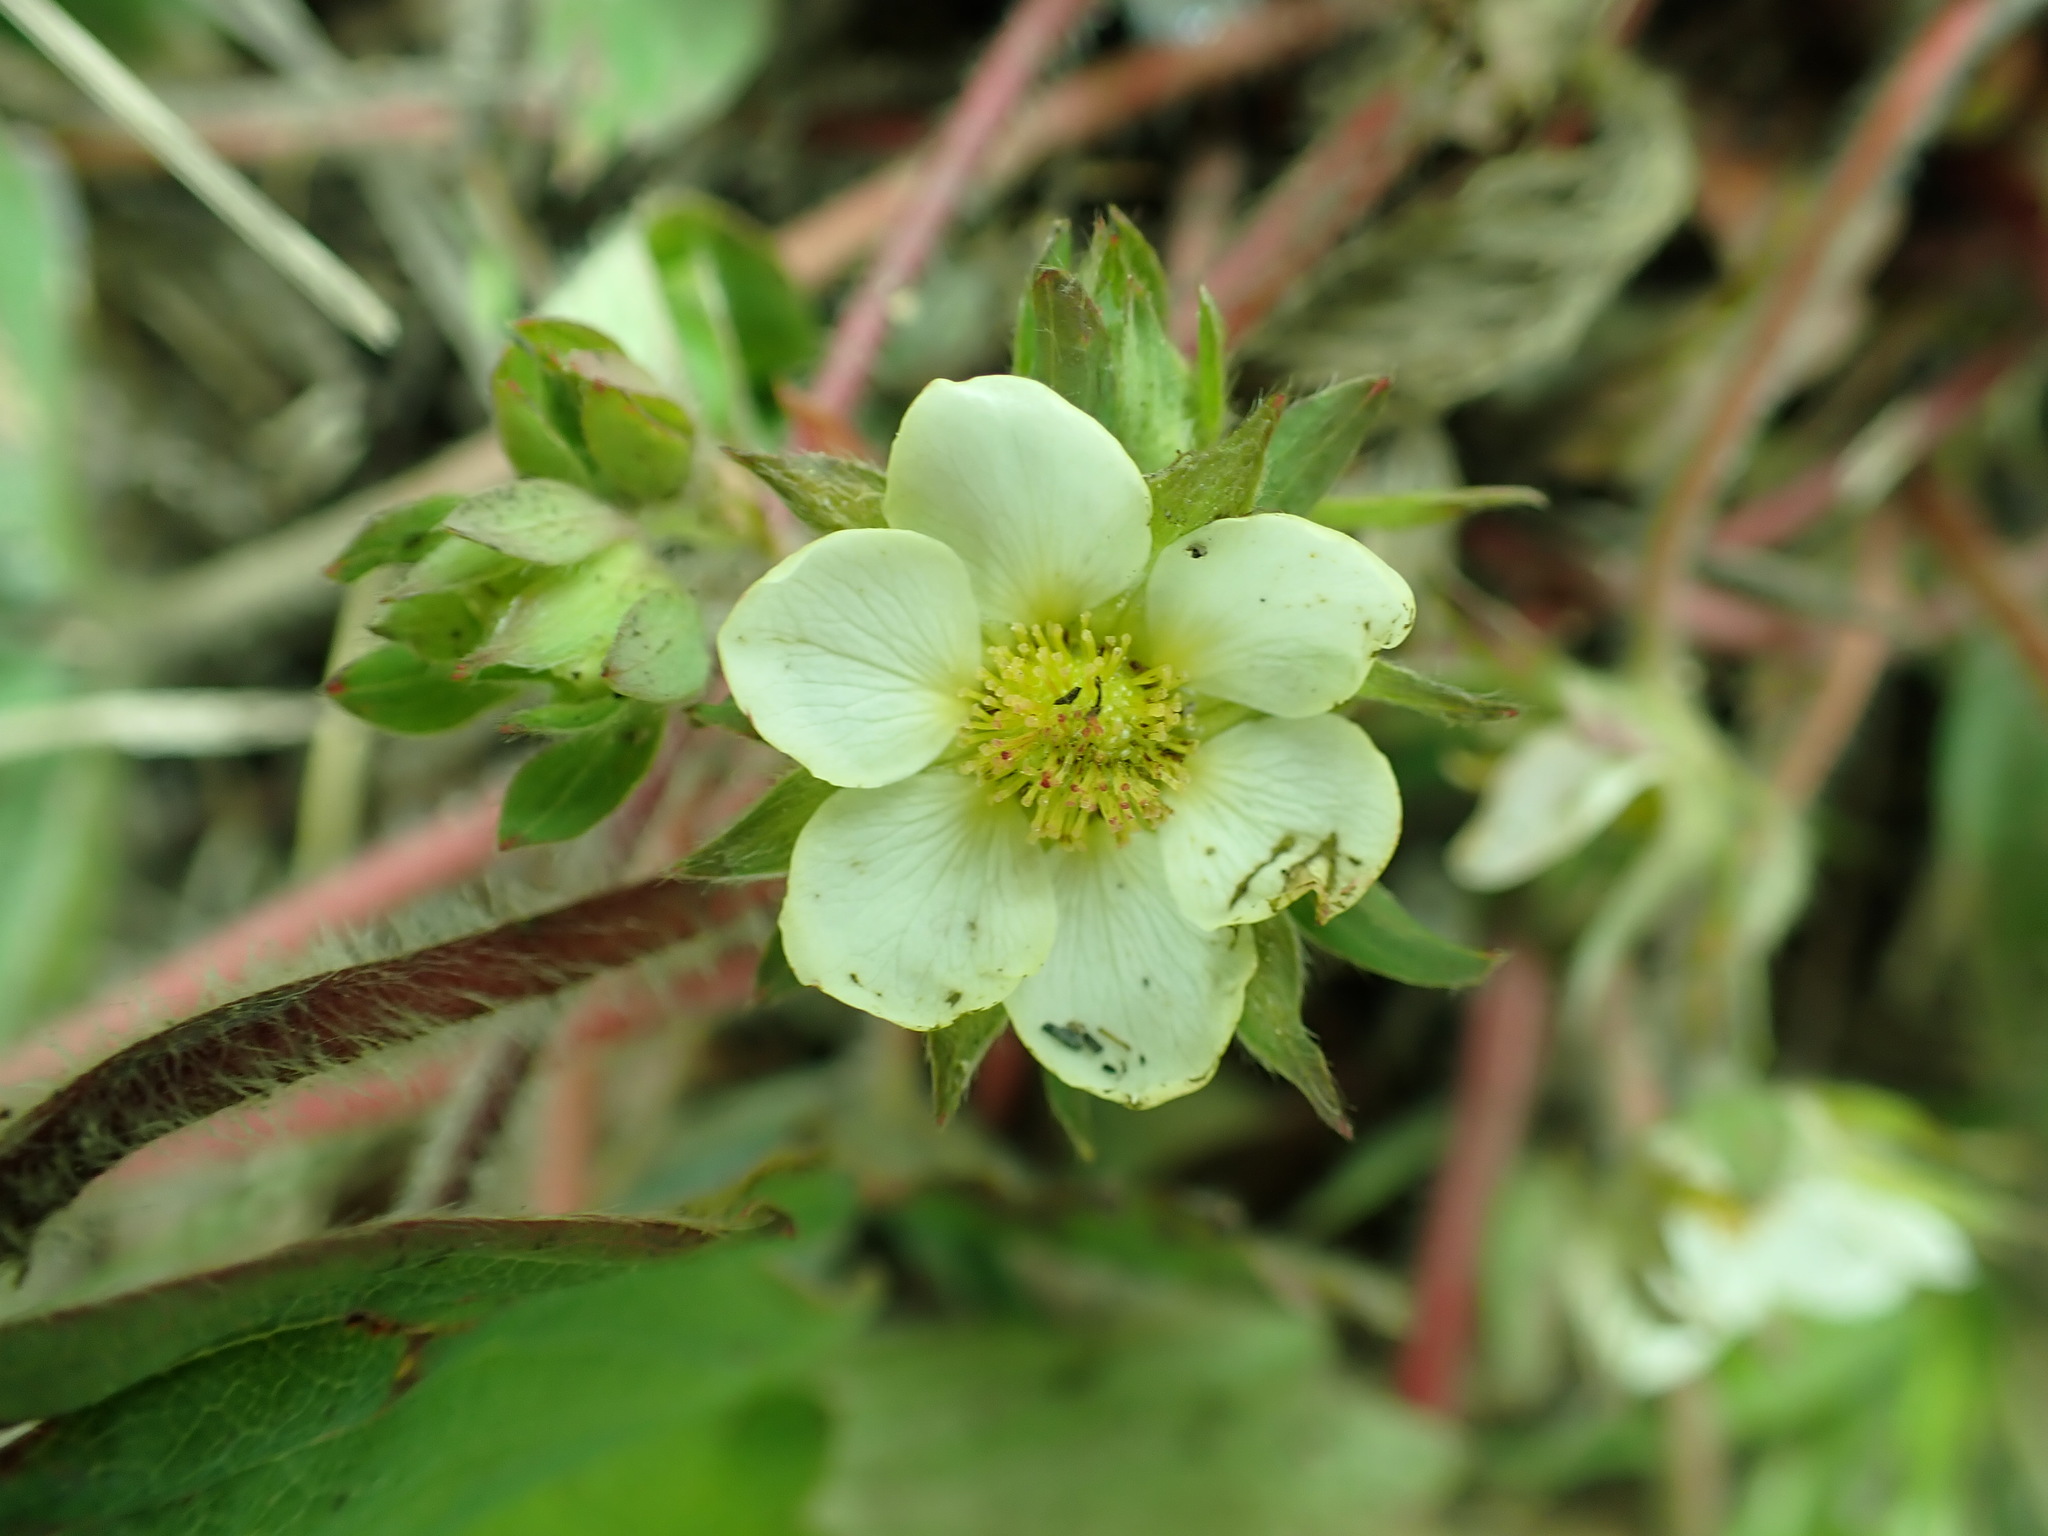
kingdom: Plantae
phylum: Tracheophyta
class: Magnoliopsida
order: Rosales
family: Rosaceae
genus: Fragaria
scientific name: Fragaria virginiana
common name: Thickleaved wild strawberry
